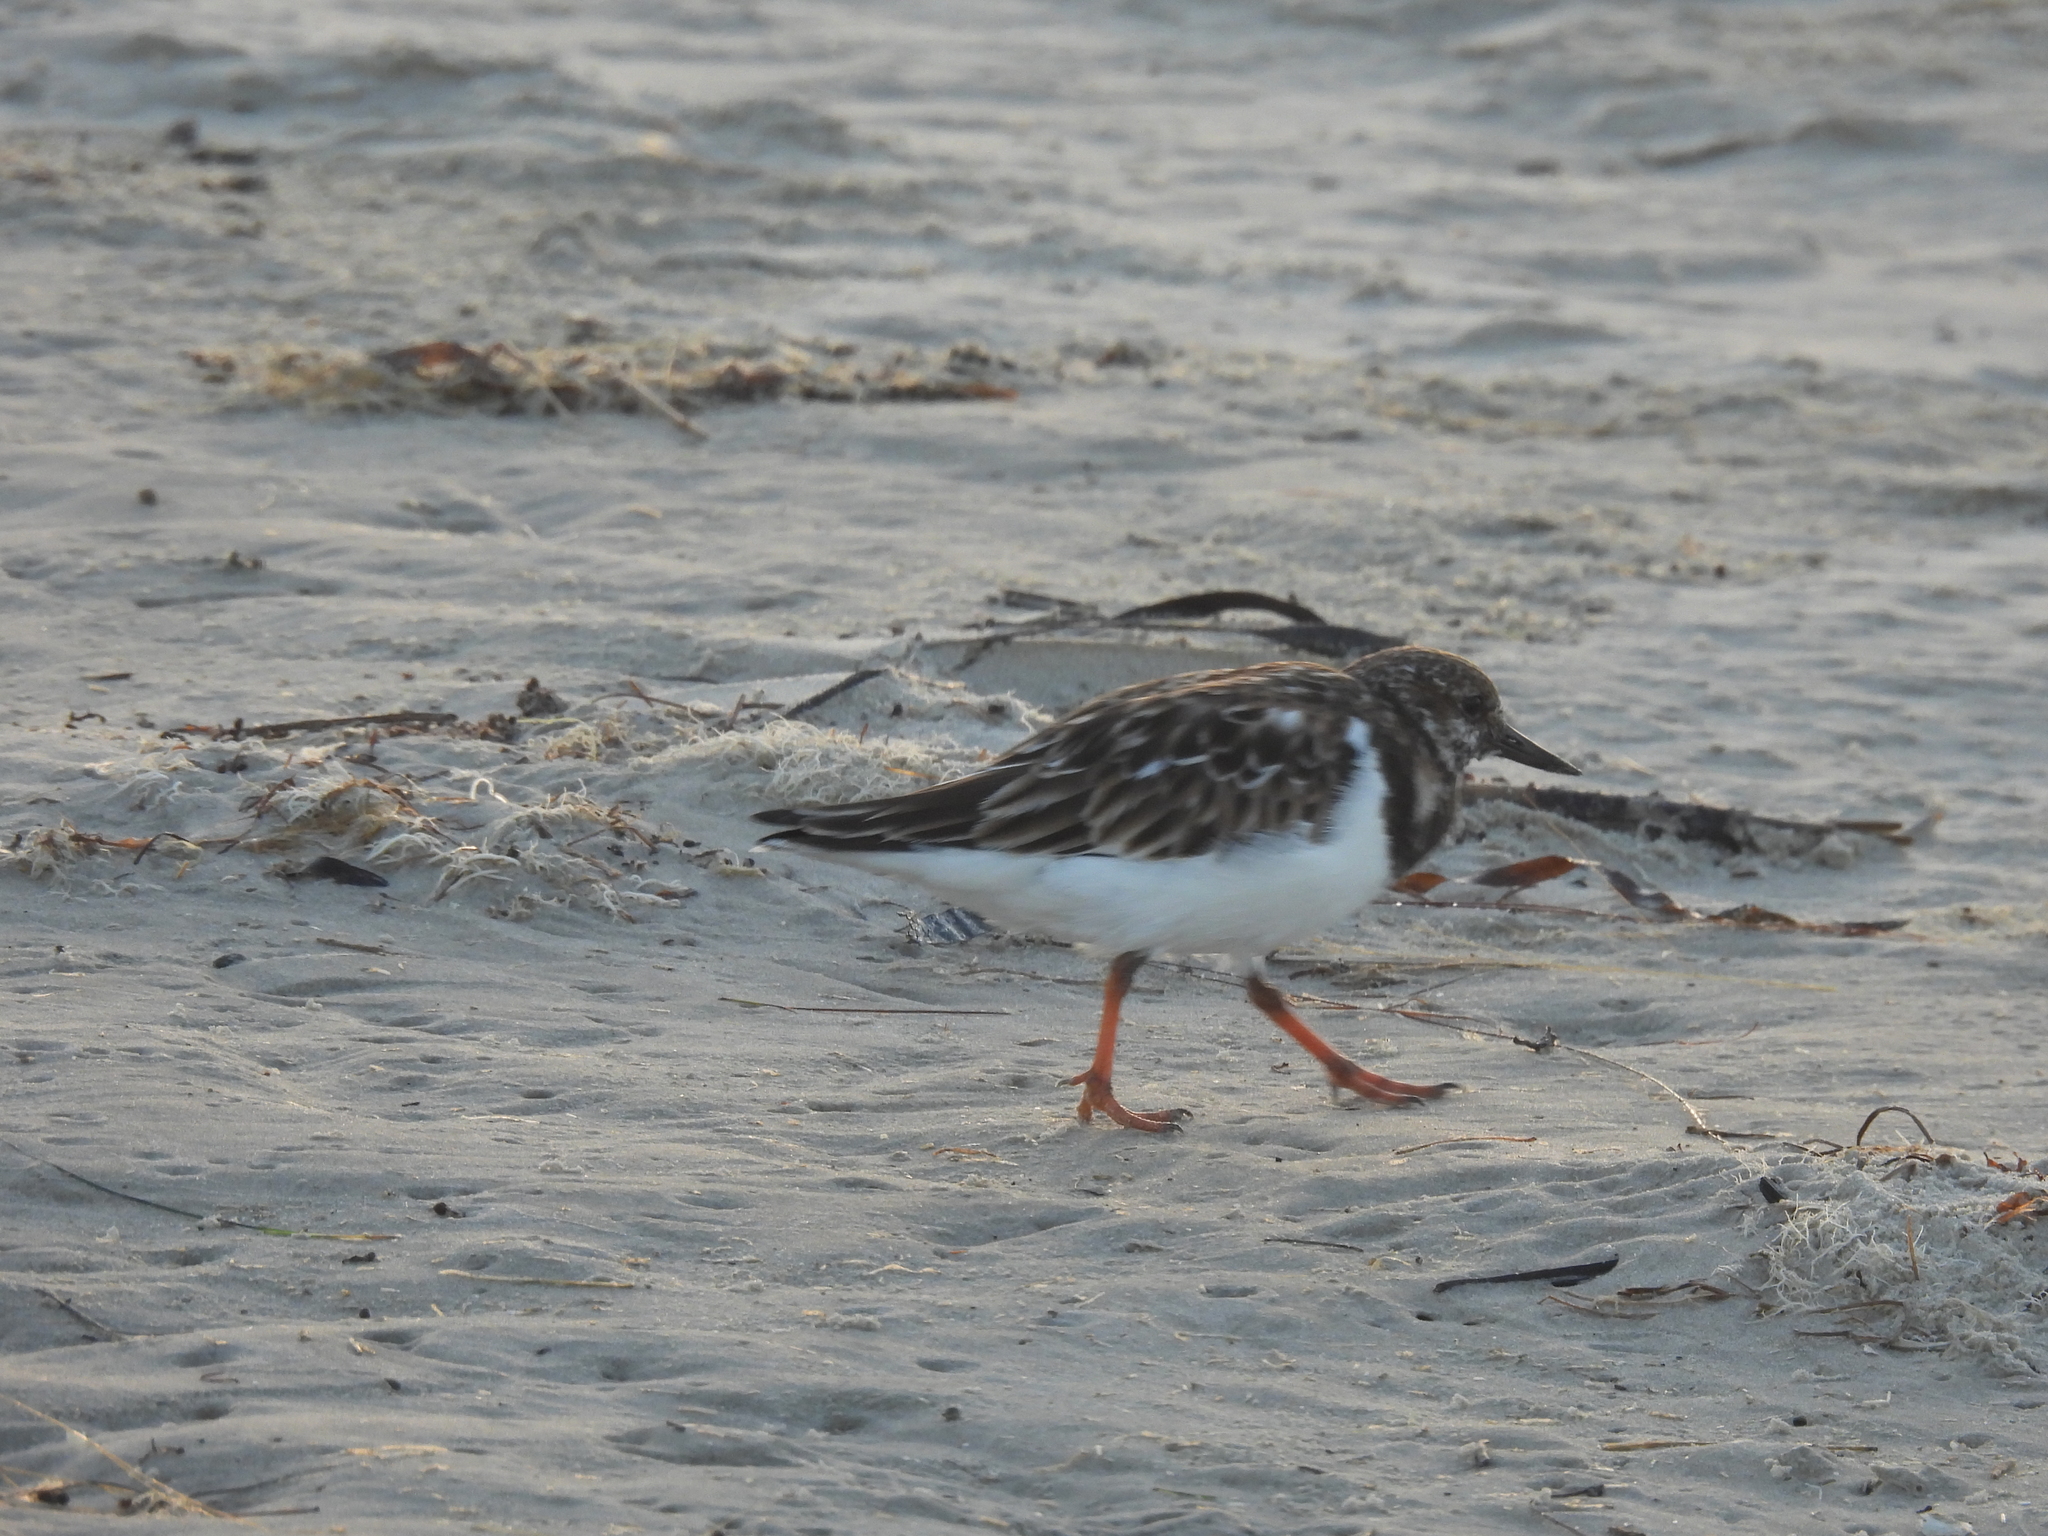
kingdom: Animalia
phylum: Chordata
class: Aves
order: Charadriiformes
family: Scolopacidae
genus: Arenaria
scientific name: Arenaria interpres
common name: Ruddy turnstone
